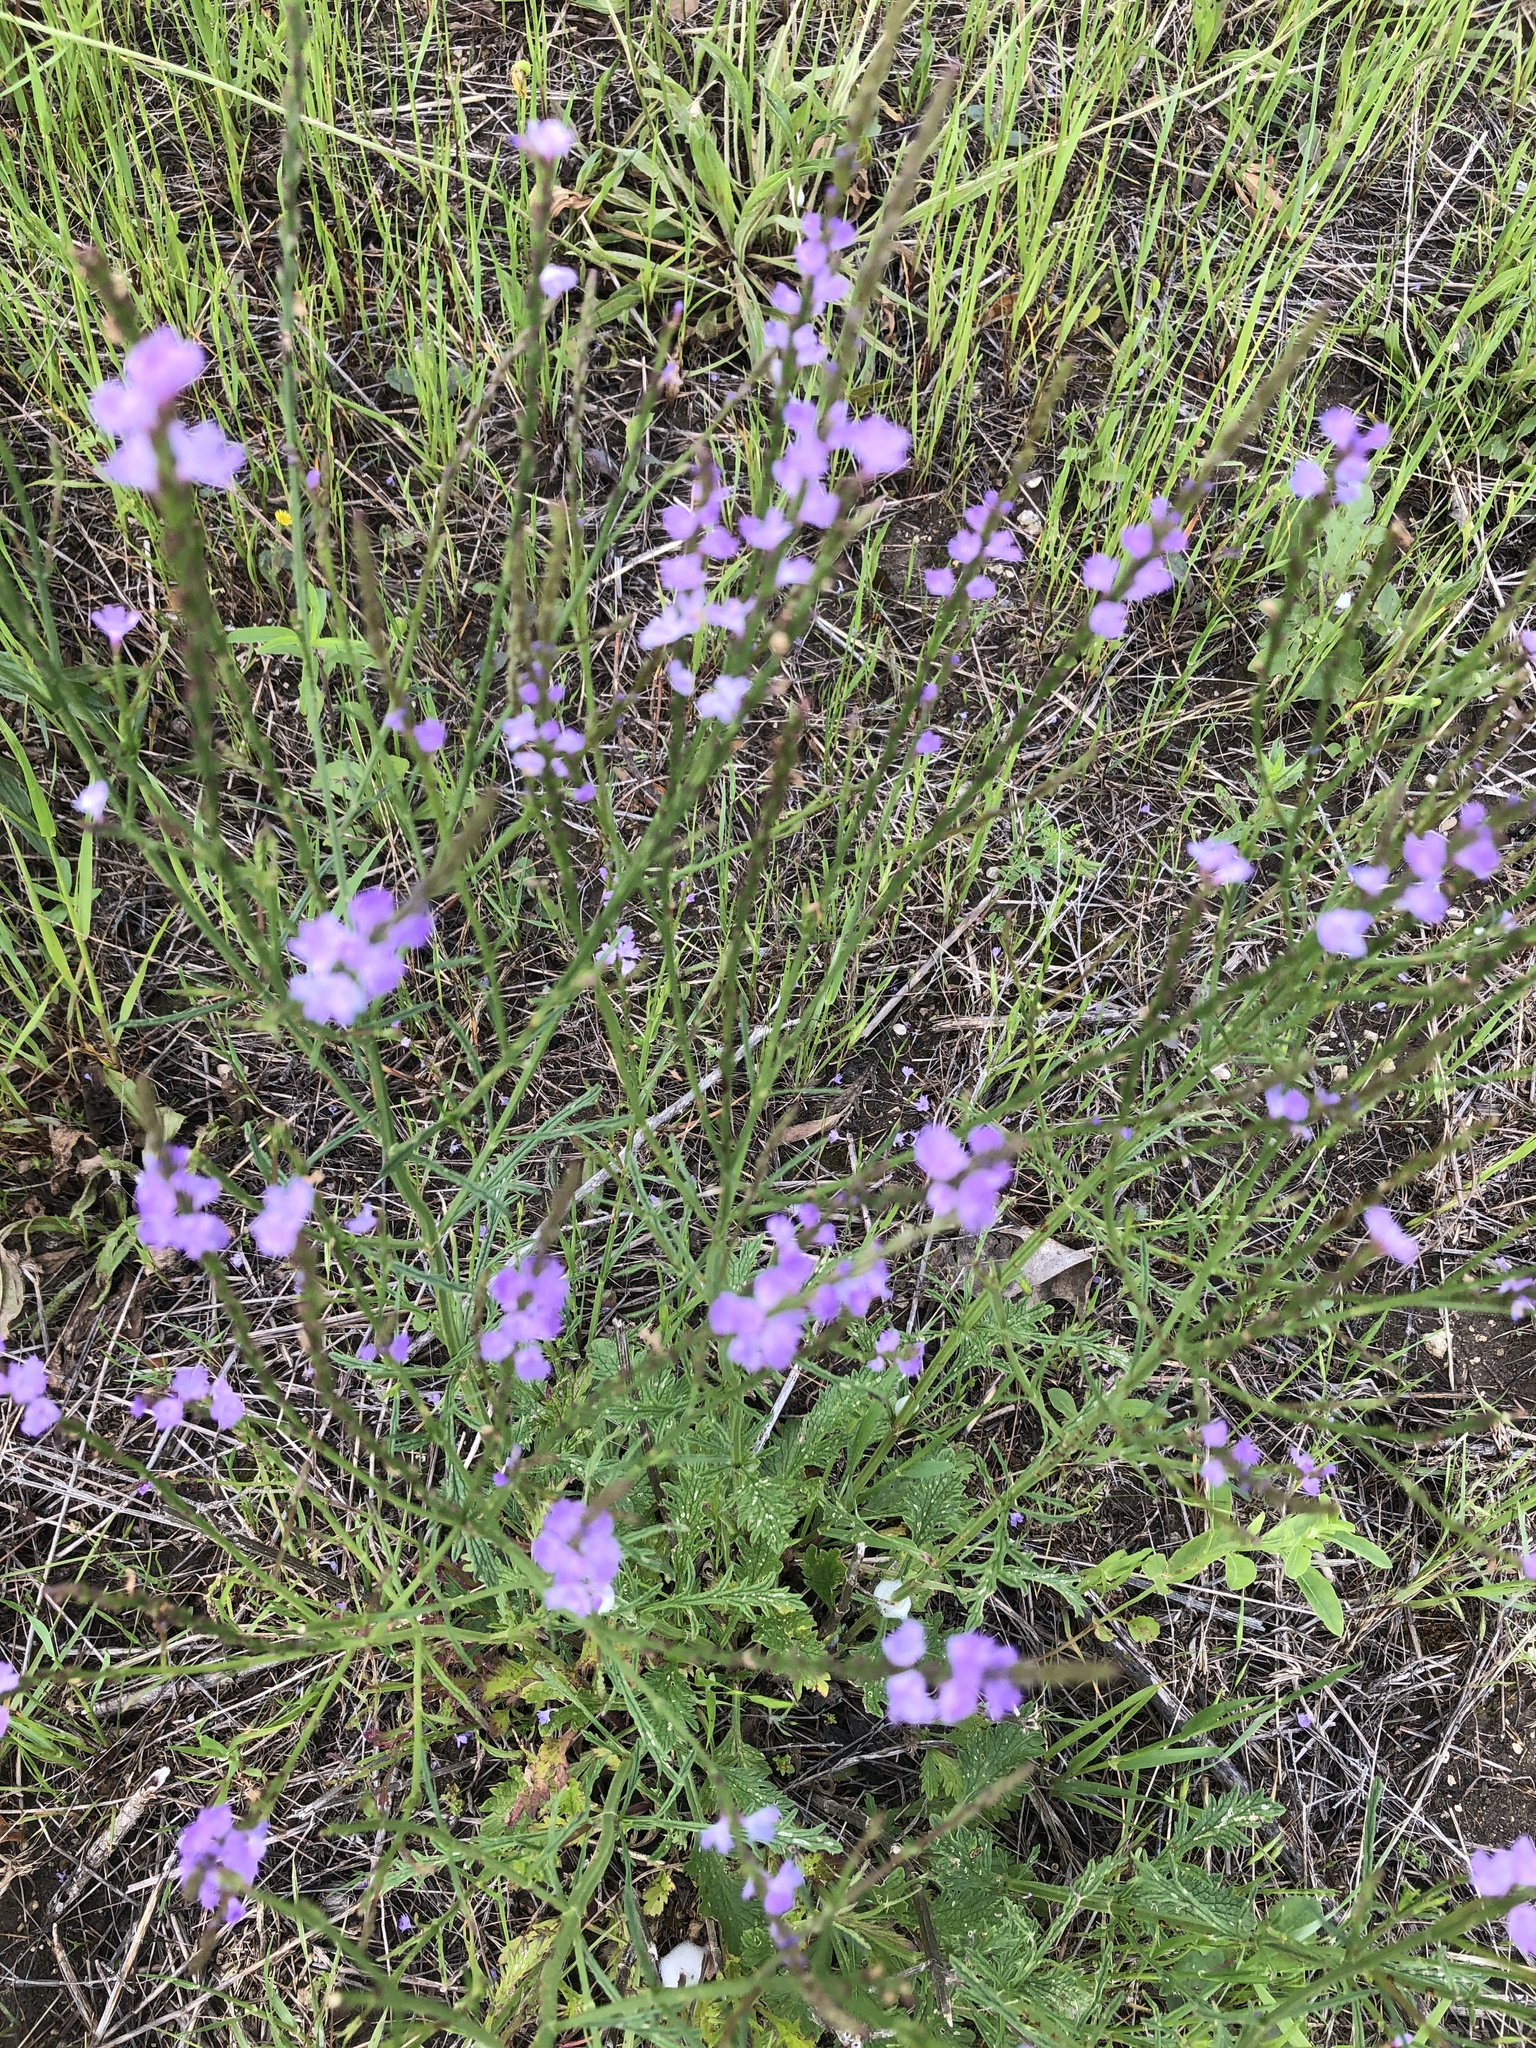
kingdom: Plantae
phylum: Tracheophyta
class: Magnoliopsida
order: Lamiales
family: Verbenaceae
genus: Verbena
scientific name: Verbena halei
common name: Texas vervain
